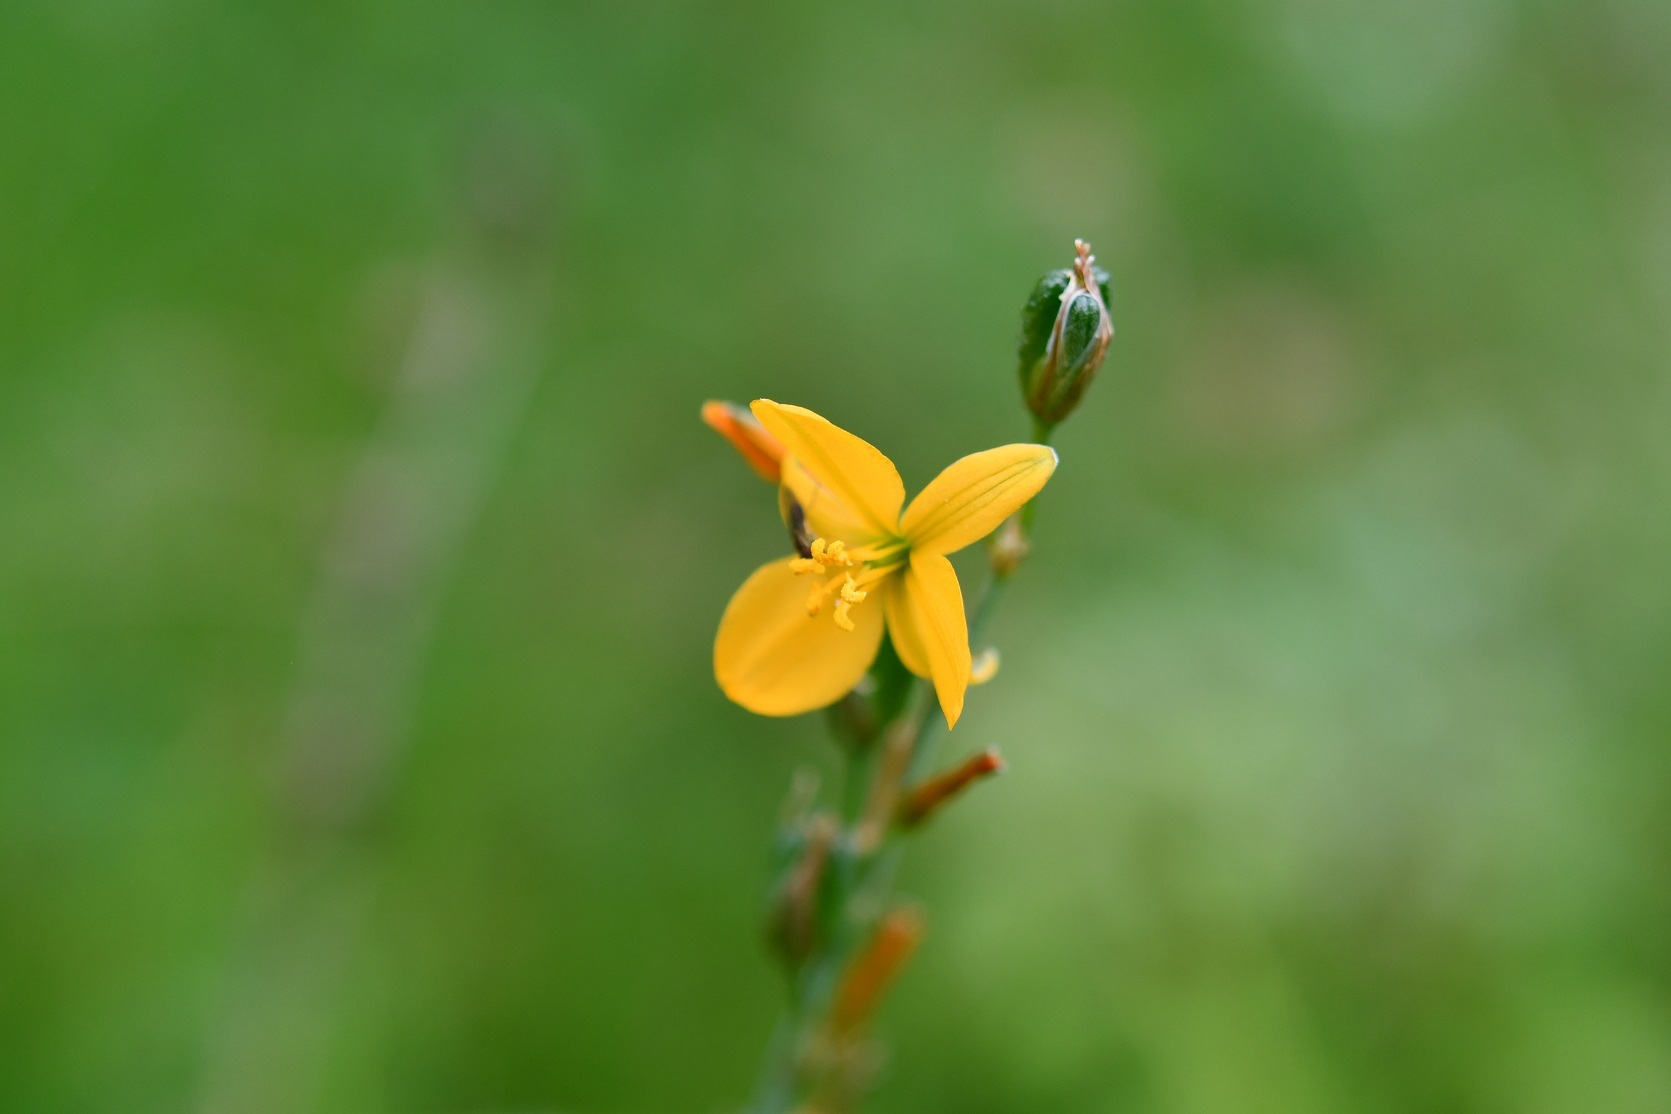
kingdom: Plantae
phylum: Tracheophyta
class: Liliopsida
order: Asparagales
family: Asparagaceae
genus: Echeandia
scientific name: Echeandia skinneri
